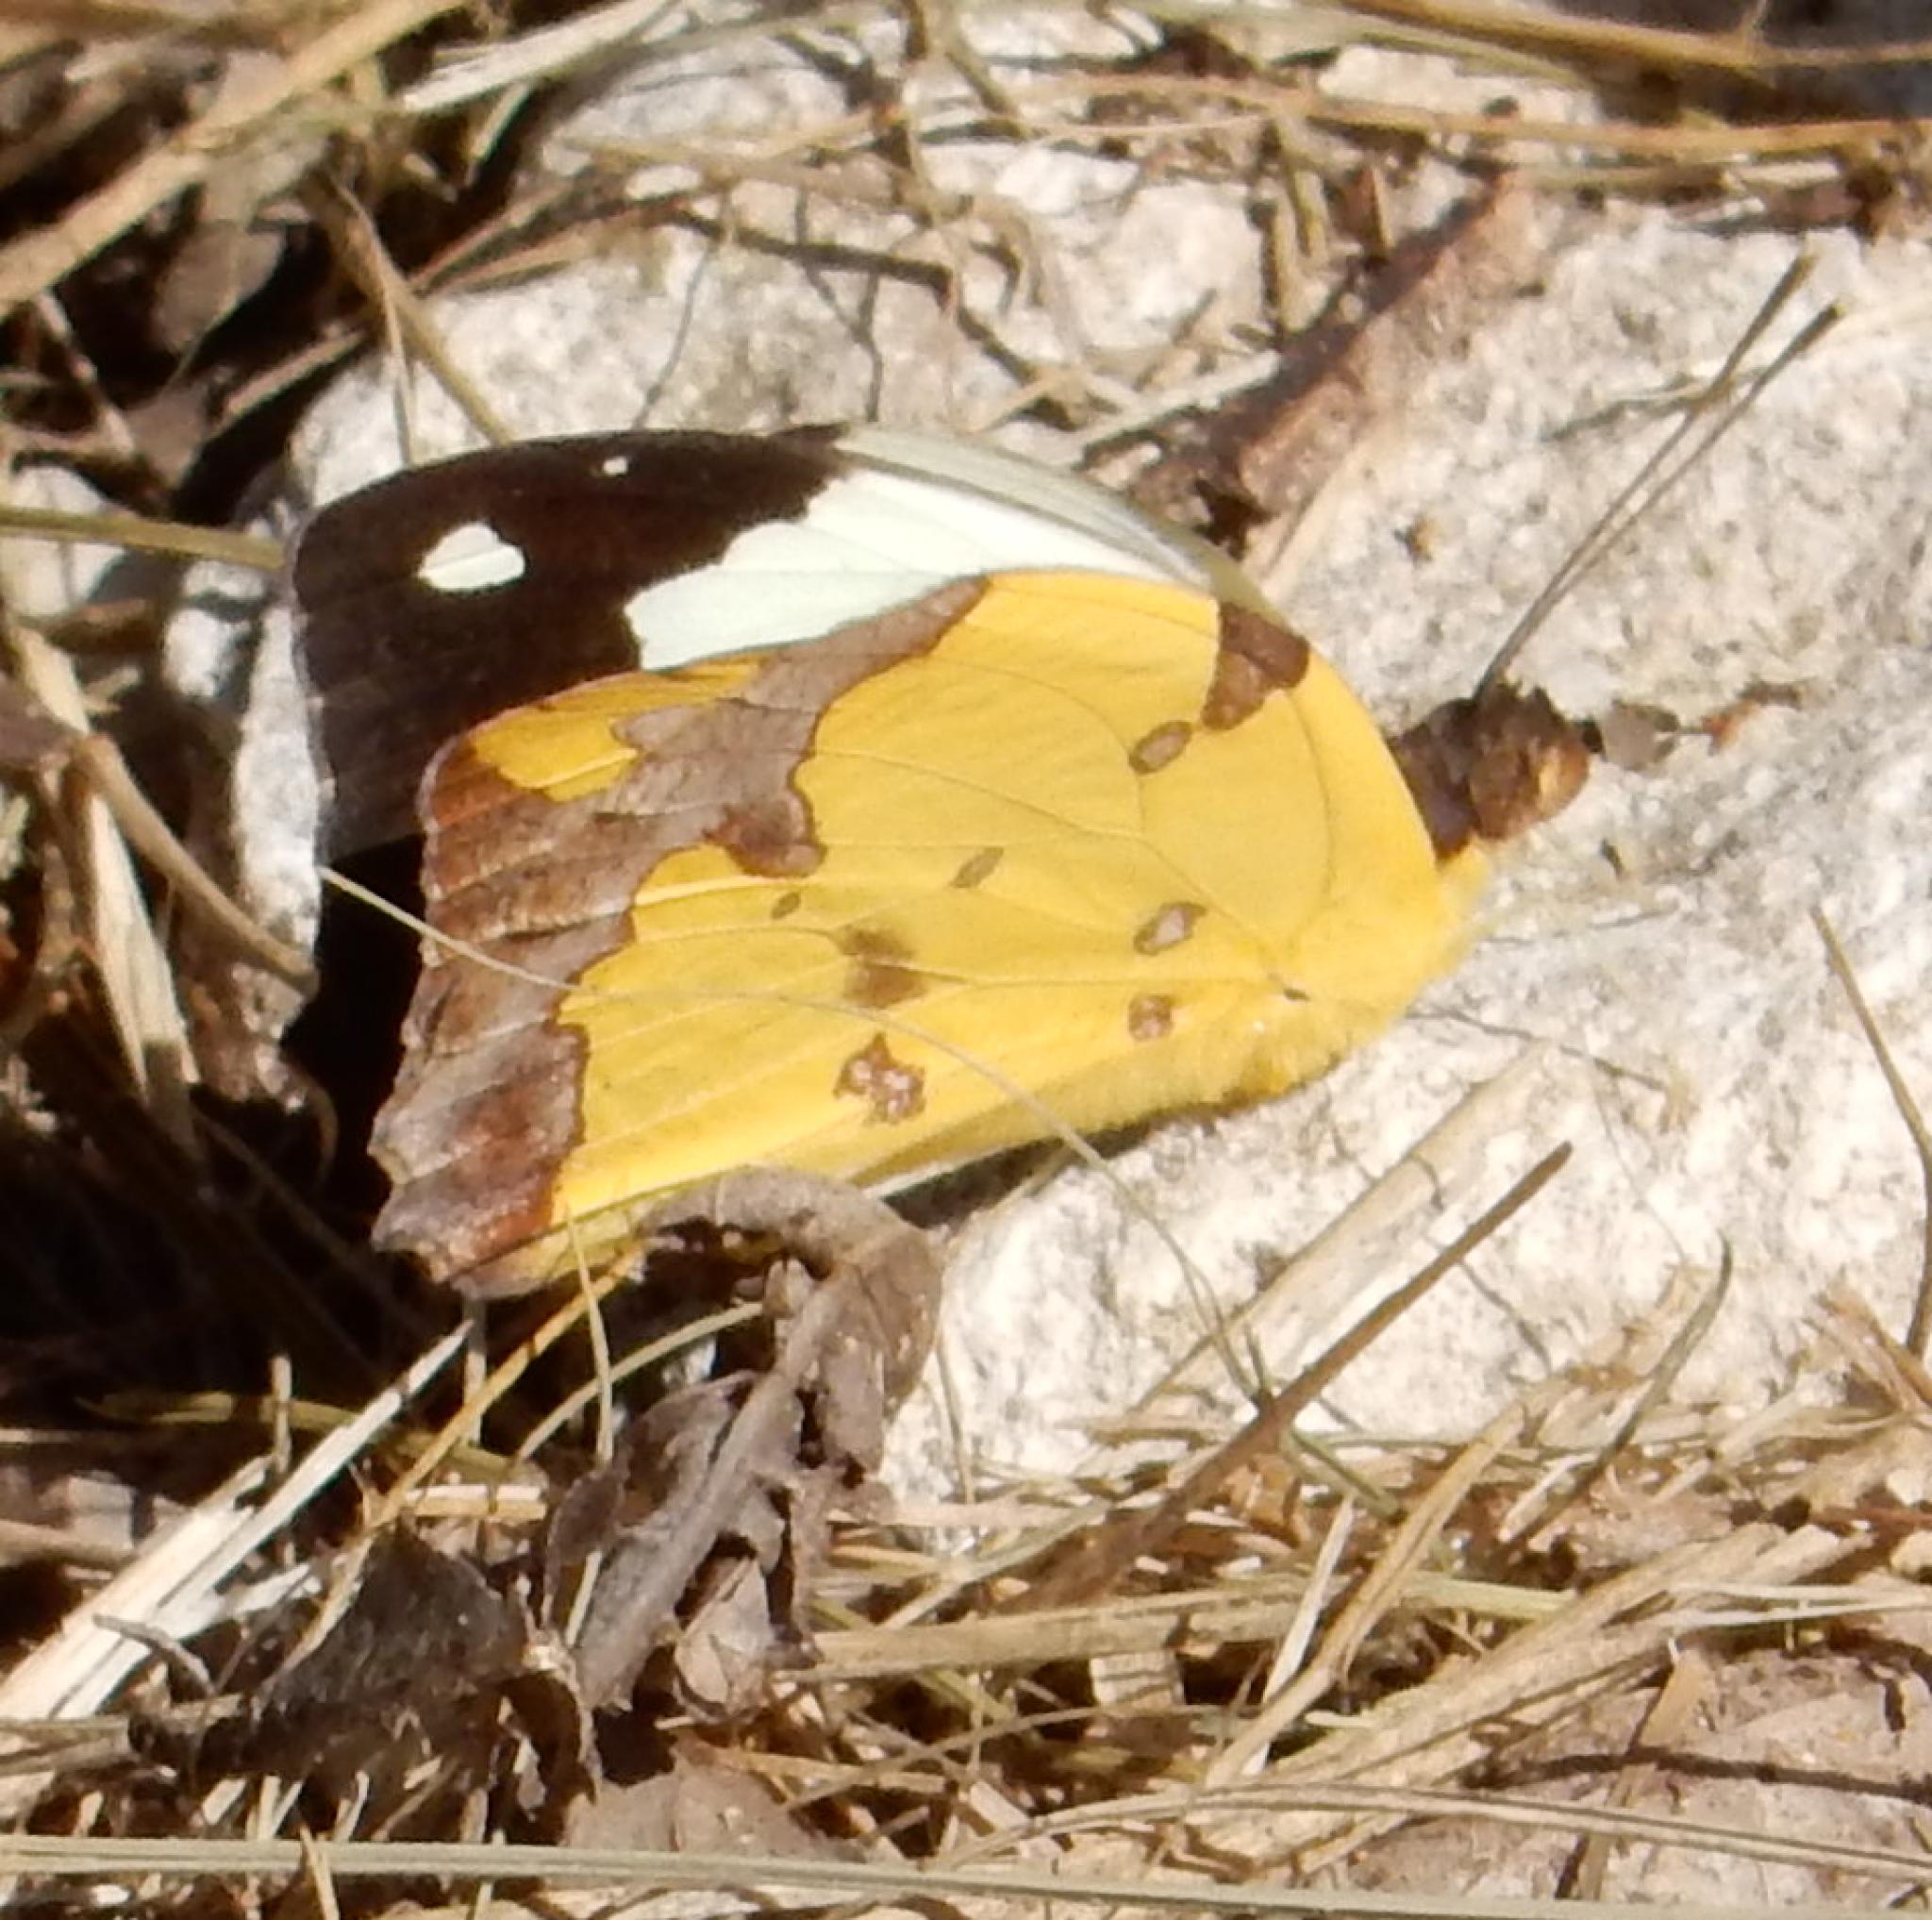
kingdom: Animalia
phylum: Arthropoda
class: Insecta
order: Lepidoptera
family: Pieridae
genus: Eronia
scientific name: Eronia cleodora
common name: Vine-leaf vagrant
